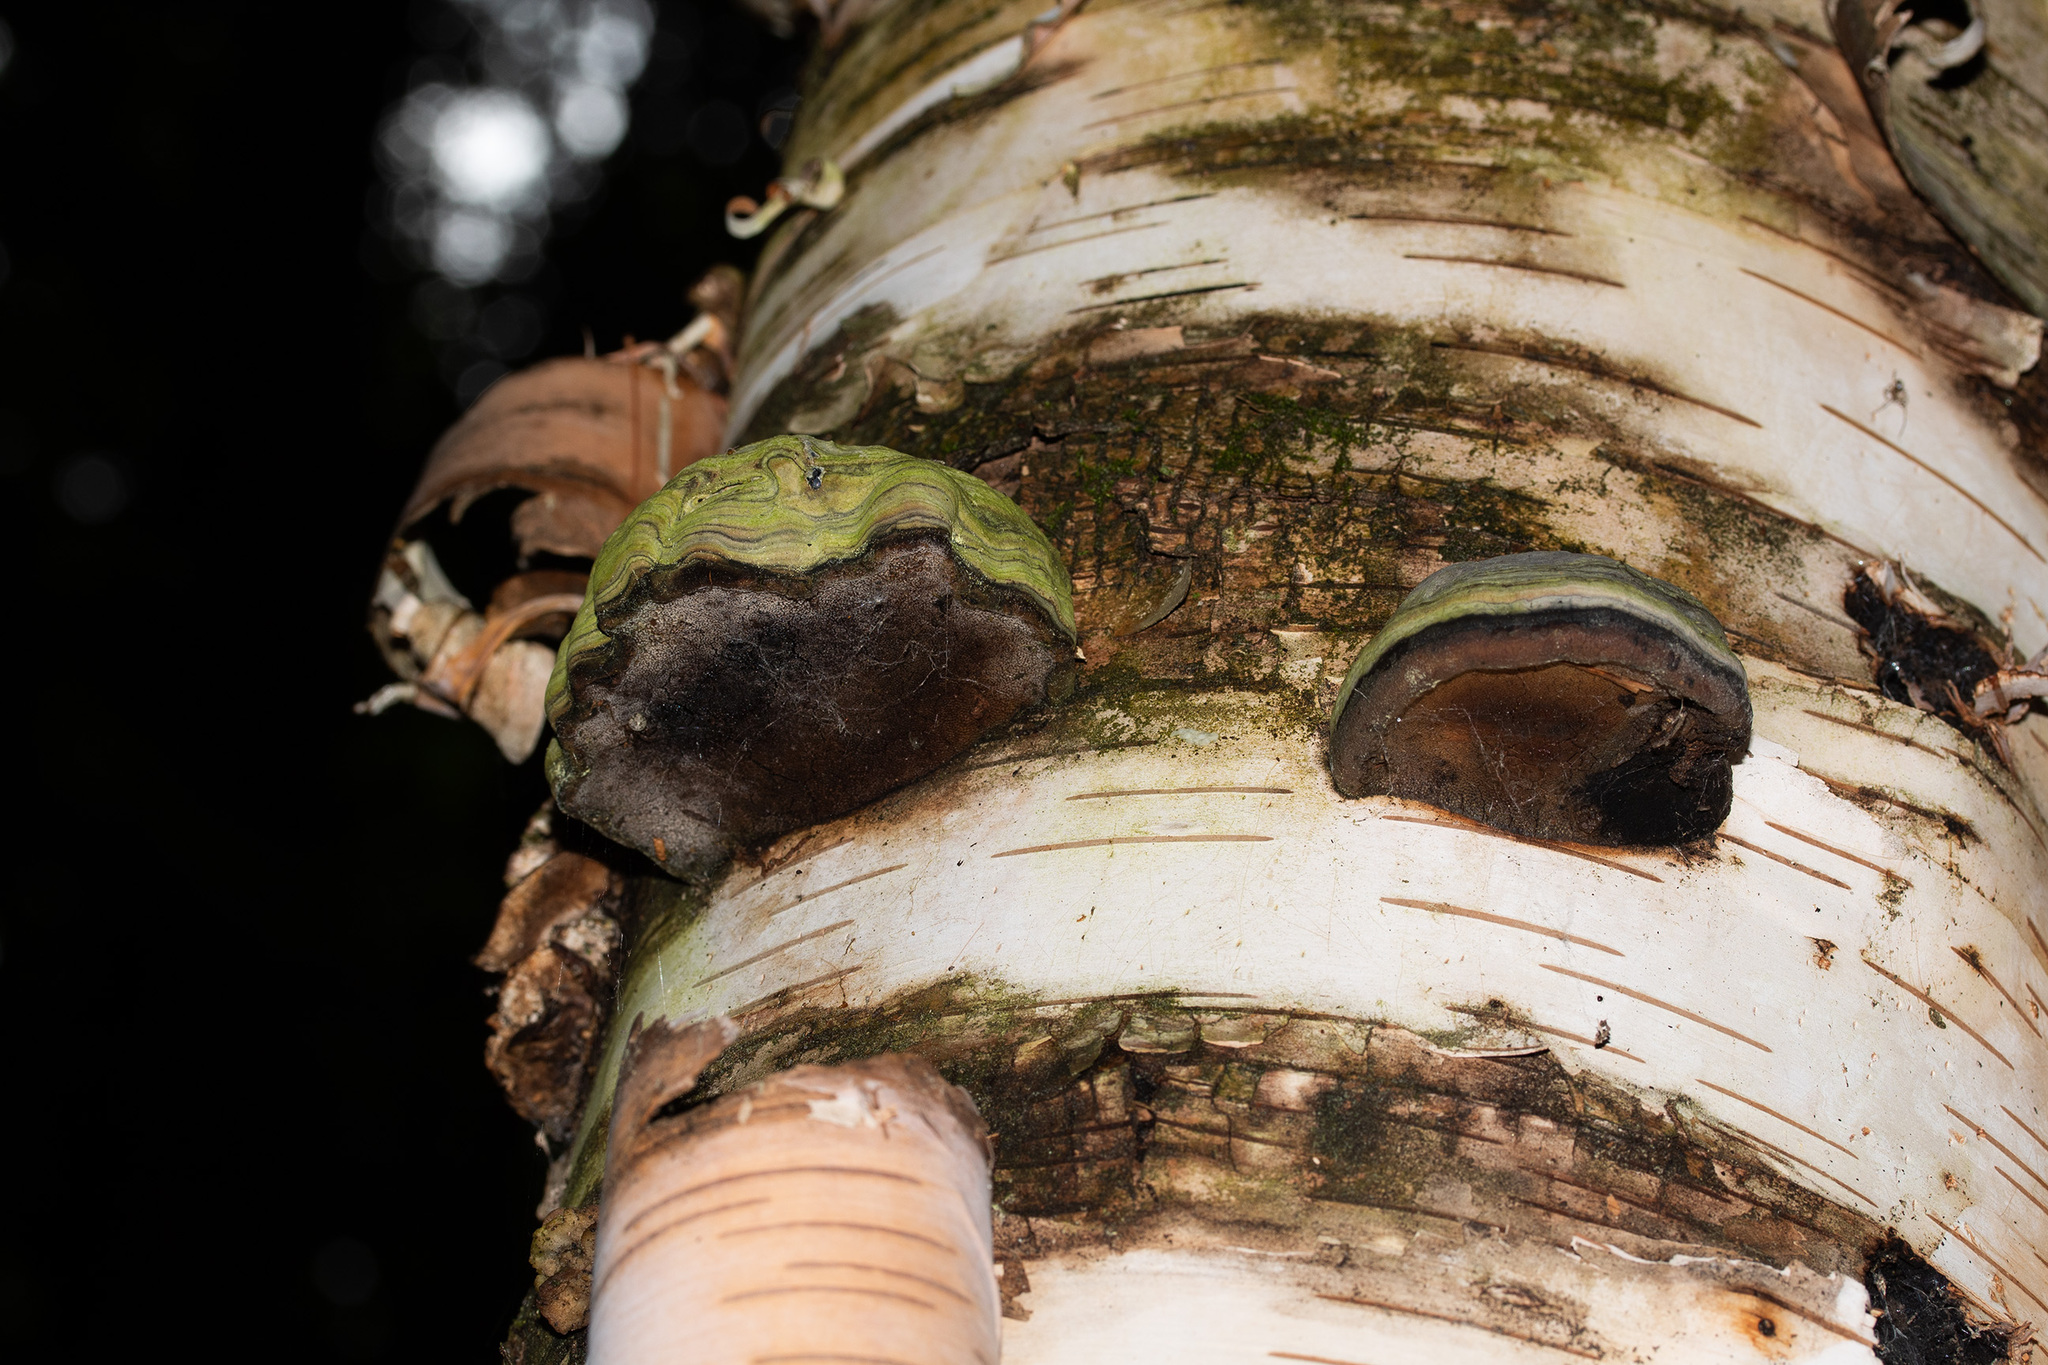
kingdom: Fungi
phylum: Basidiomycota
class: Agaricomycetes
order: Polyporales
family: Polyporaceae
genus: Fomes
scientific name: Fomes fomentarius
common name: Hoof fungus
